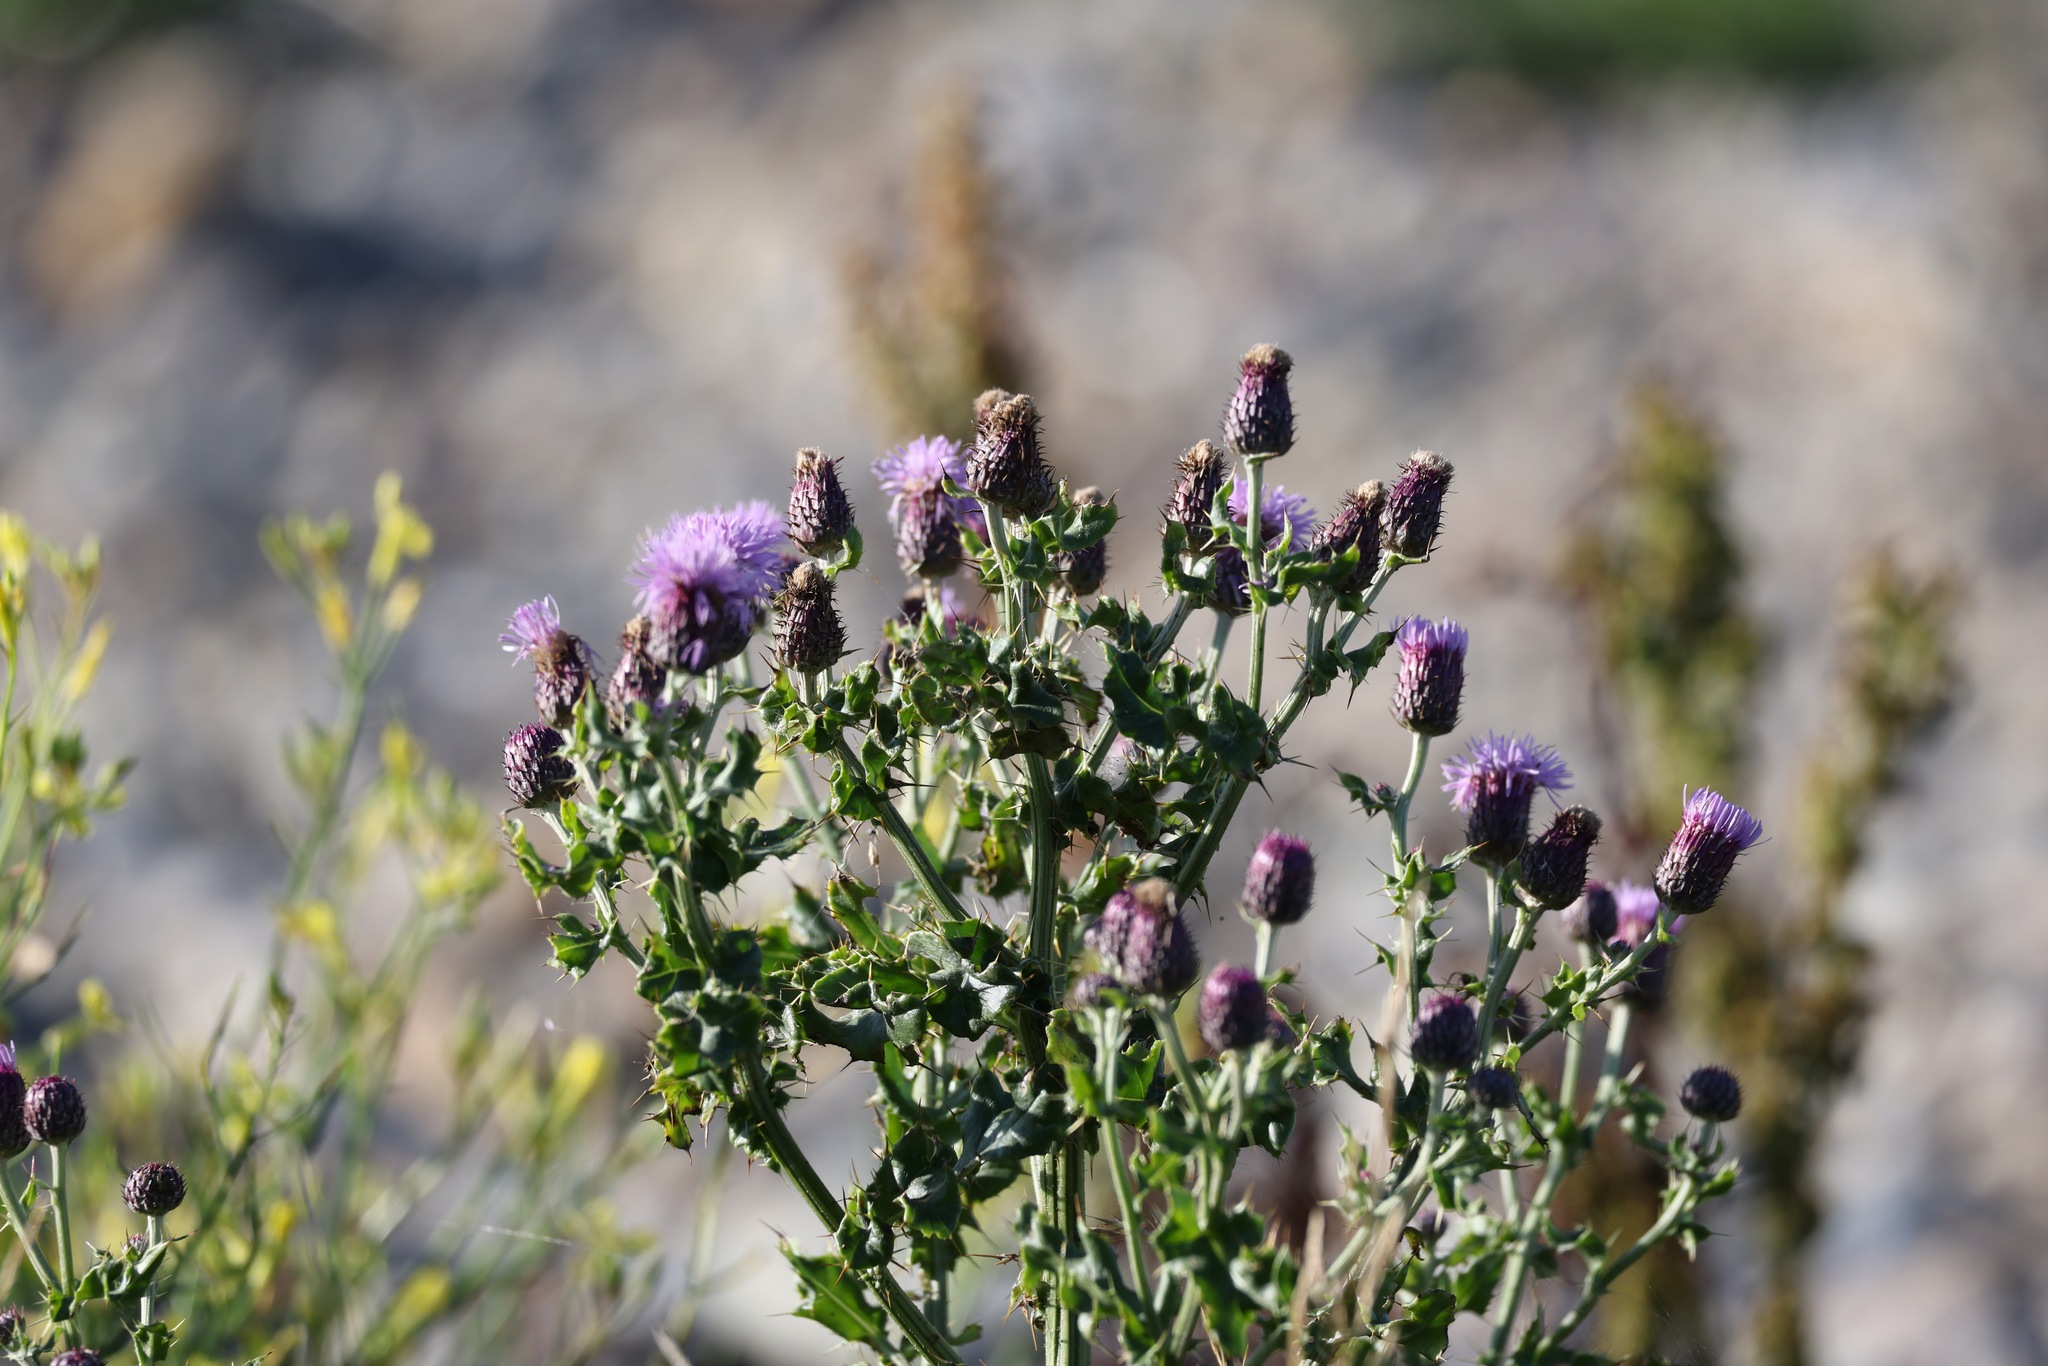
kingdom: Plantae
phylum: Tracheophyta
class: Magnoliopsida
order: Asterales
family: Asteraceae
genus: Cirsium
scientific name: Cirsium arvense
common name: Creeping thistle
